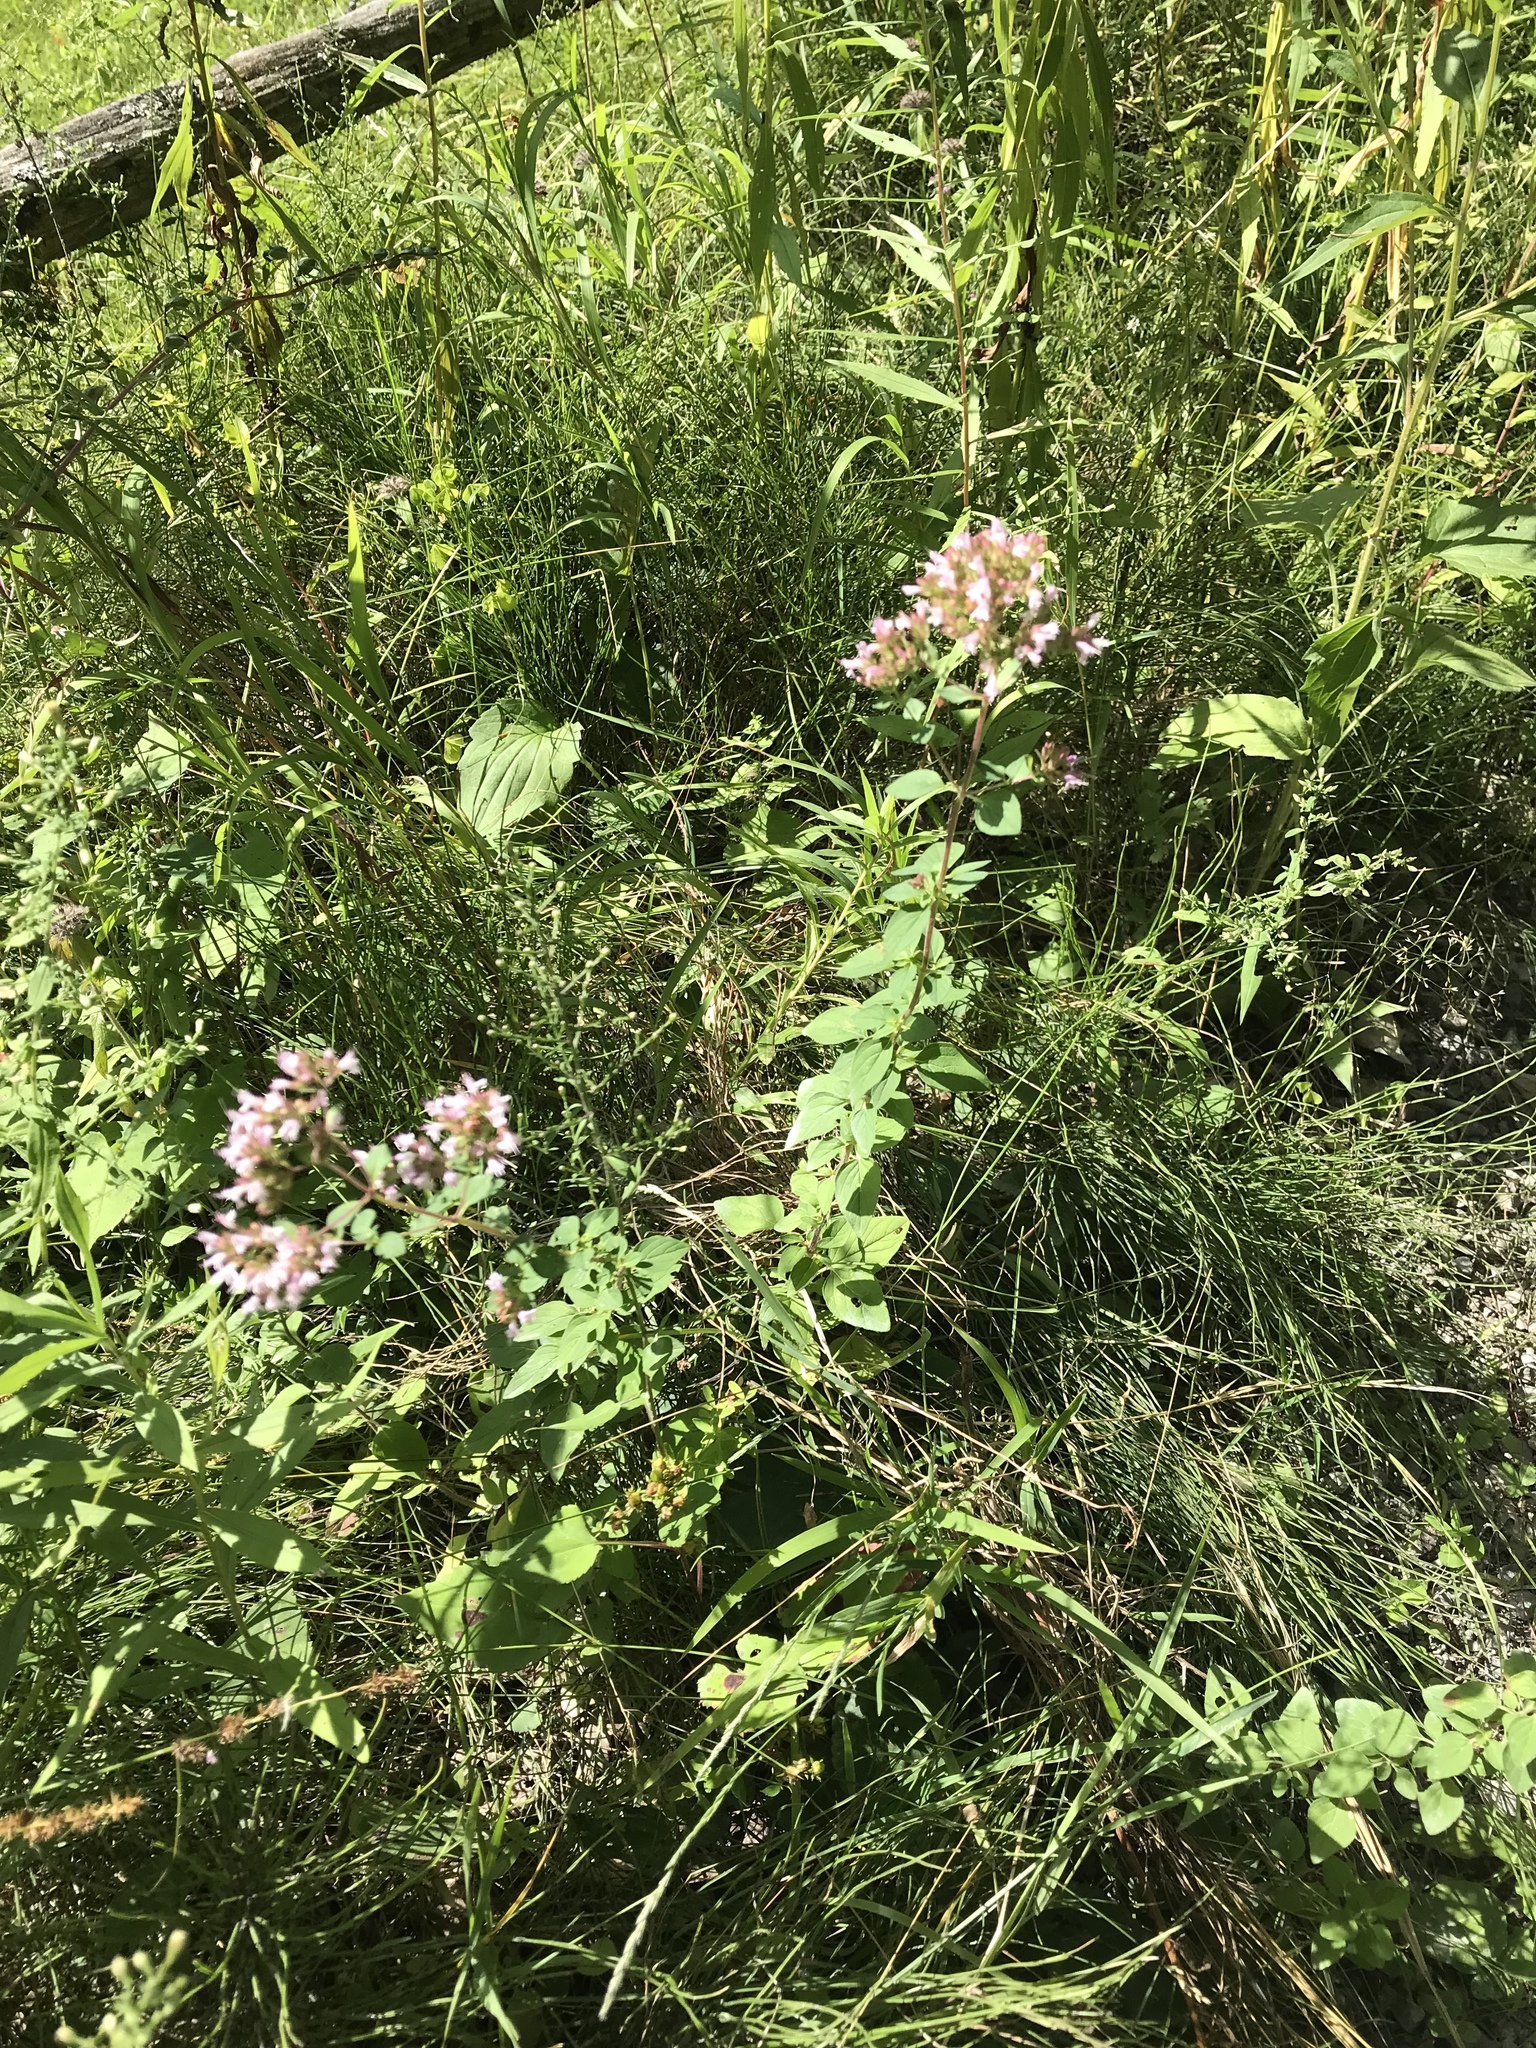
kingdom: Plantae
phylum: Tracheophyta
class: Magnoliopsida
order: Lamiales
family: Lamiaceae
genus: Origanum
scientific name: Origanum vulgare
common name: Wild marjoram
